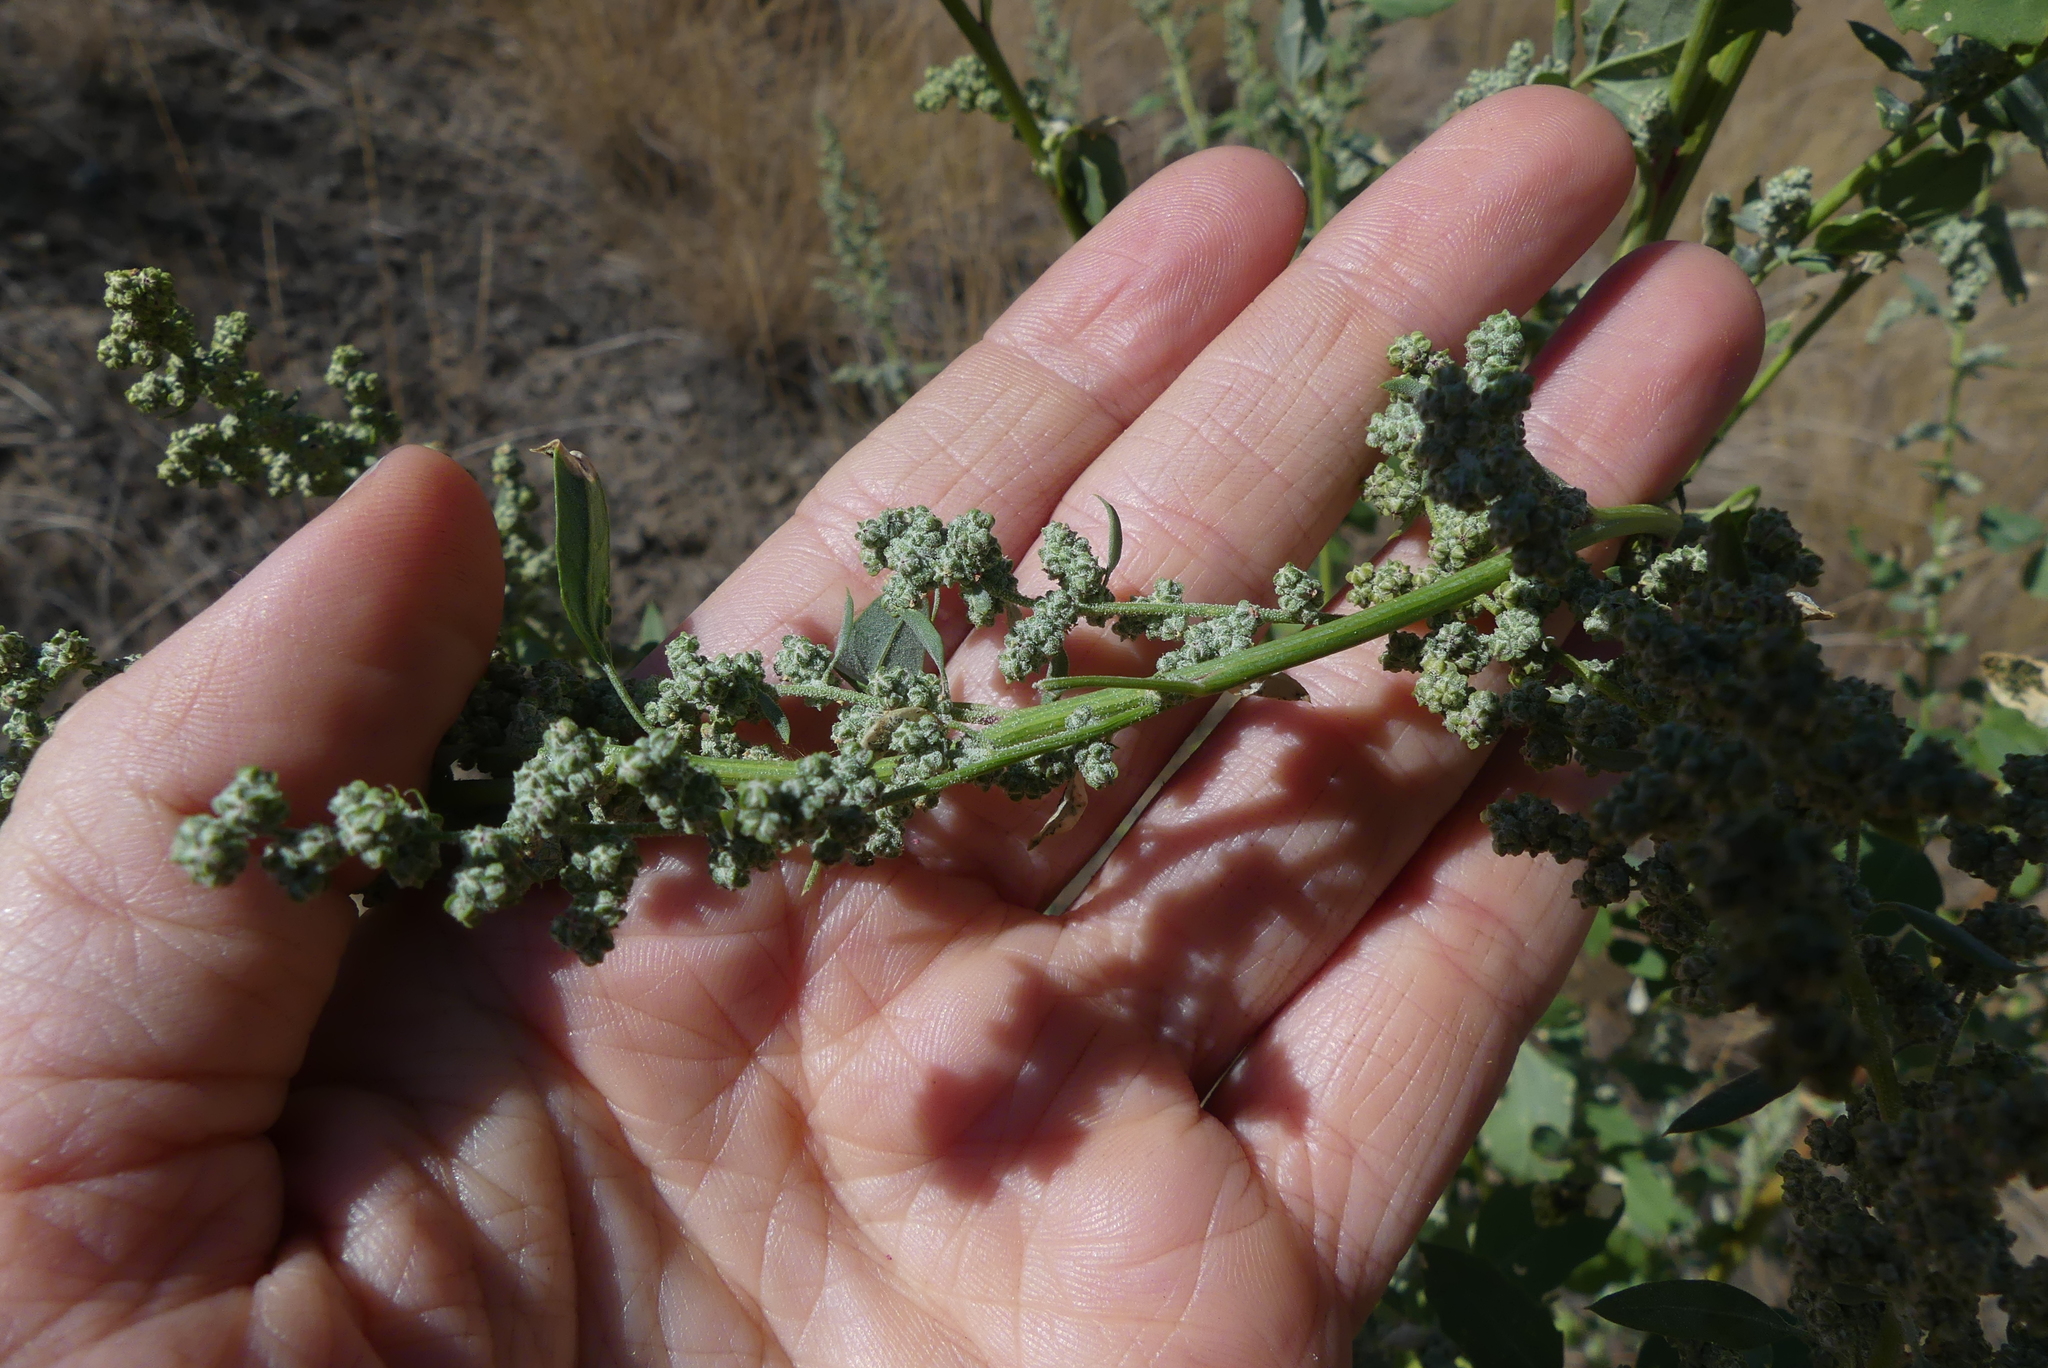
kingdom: Plantae
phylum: Tracheophyta
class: Magnoliopsida
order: Caryophyllales
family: Amaranthaceae
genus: Chenopodium
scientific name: Chenopodium album
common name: Fat-hen
